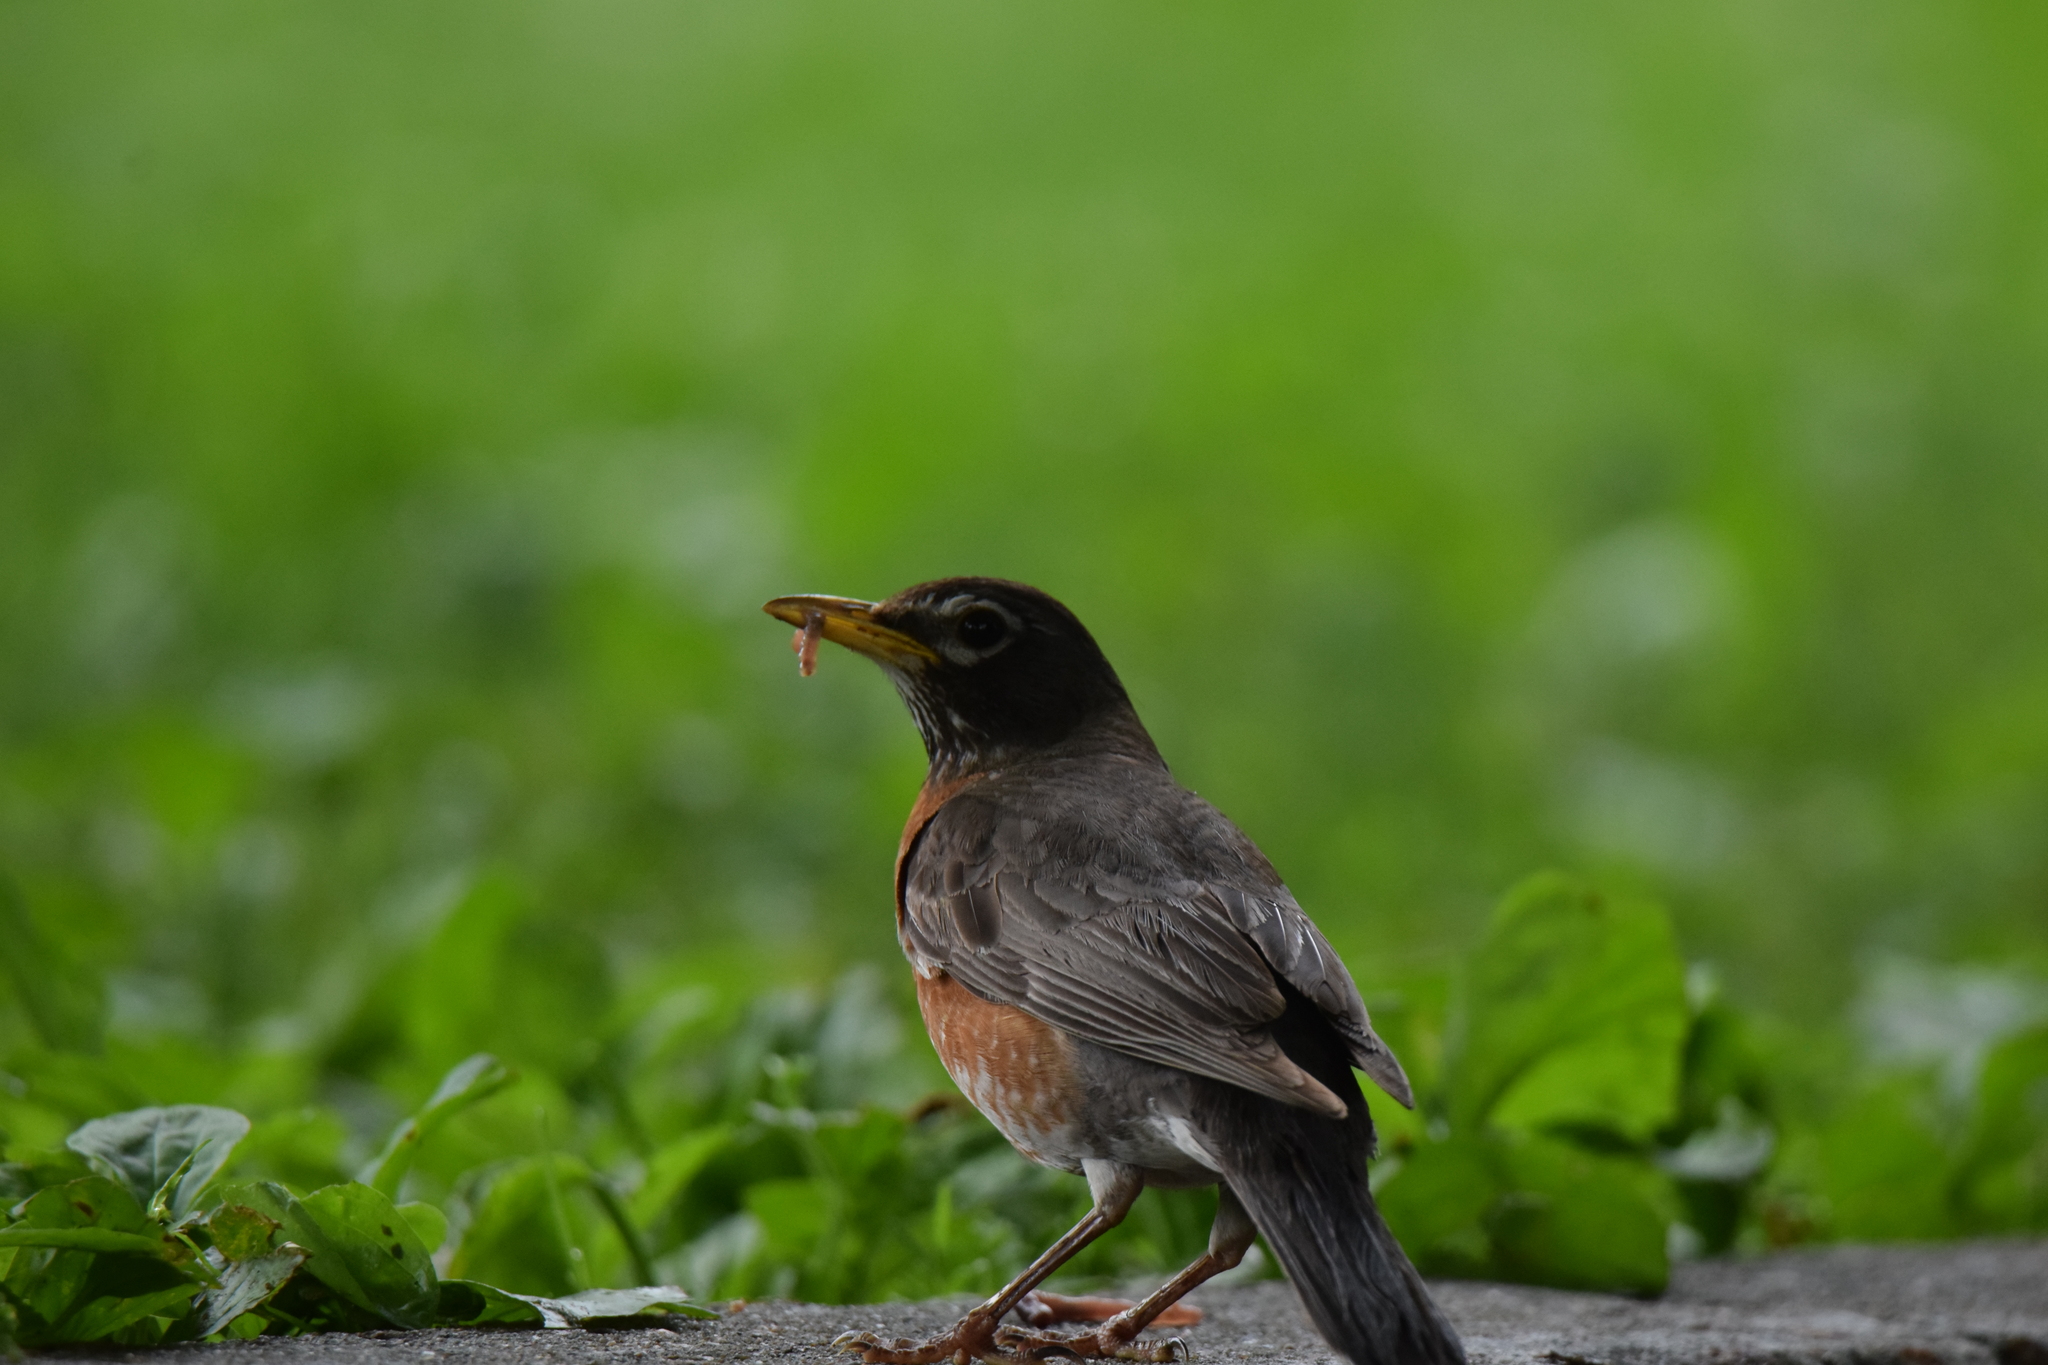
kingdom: Animalia
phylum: Chordata
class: Aves
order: Passeriformes
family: Turdidae
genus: Turdus
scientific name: Turdus migratorius
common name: American robin
